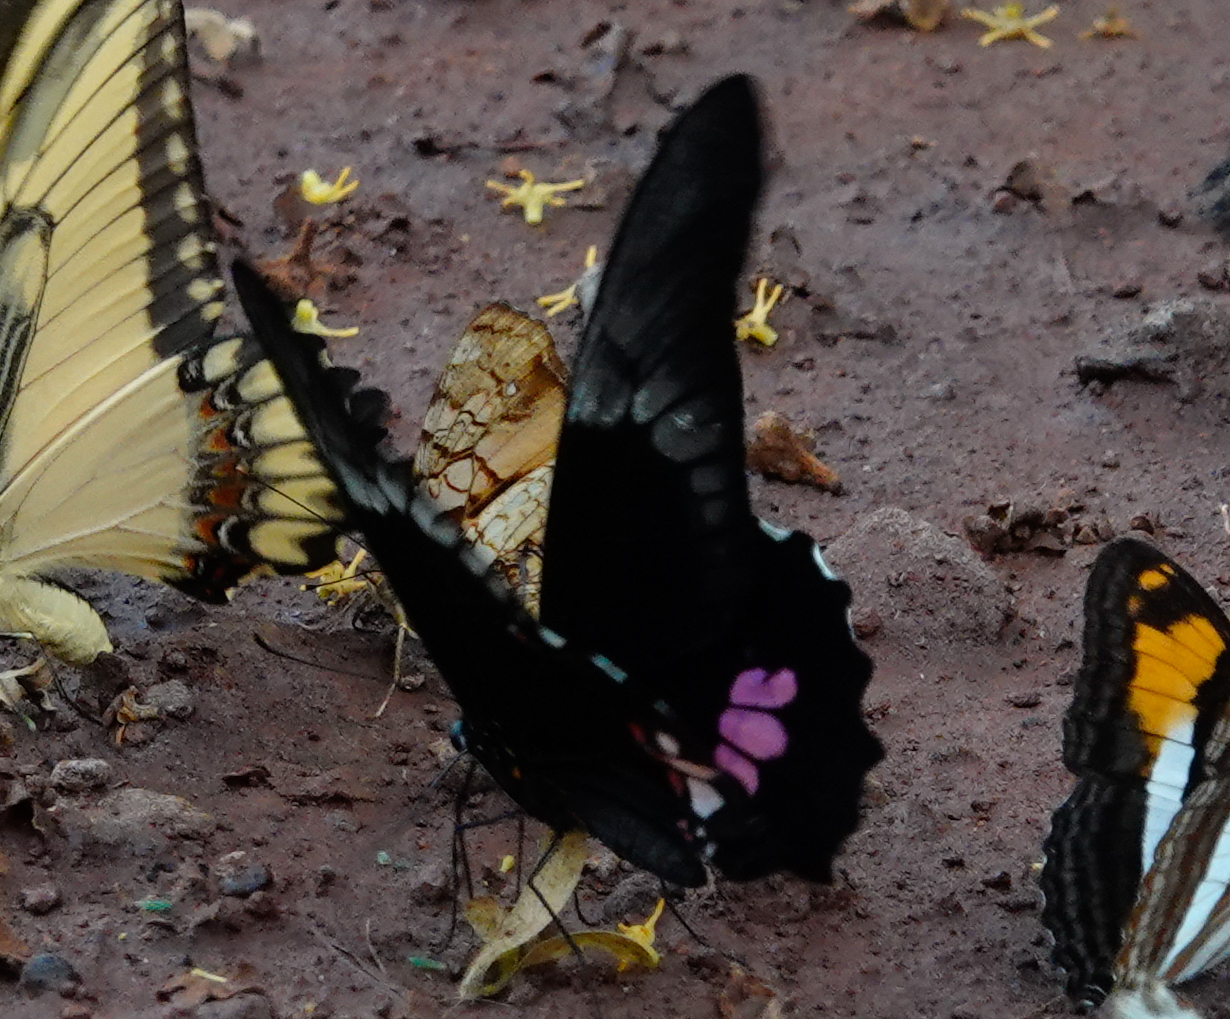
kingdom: Animalia
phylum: Arthropoda
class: Insecta
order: Lepidoptera
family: Papilionidae
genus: Papilio
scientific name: Papilio anchisiades
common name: Idaes swallowtail
